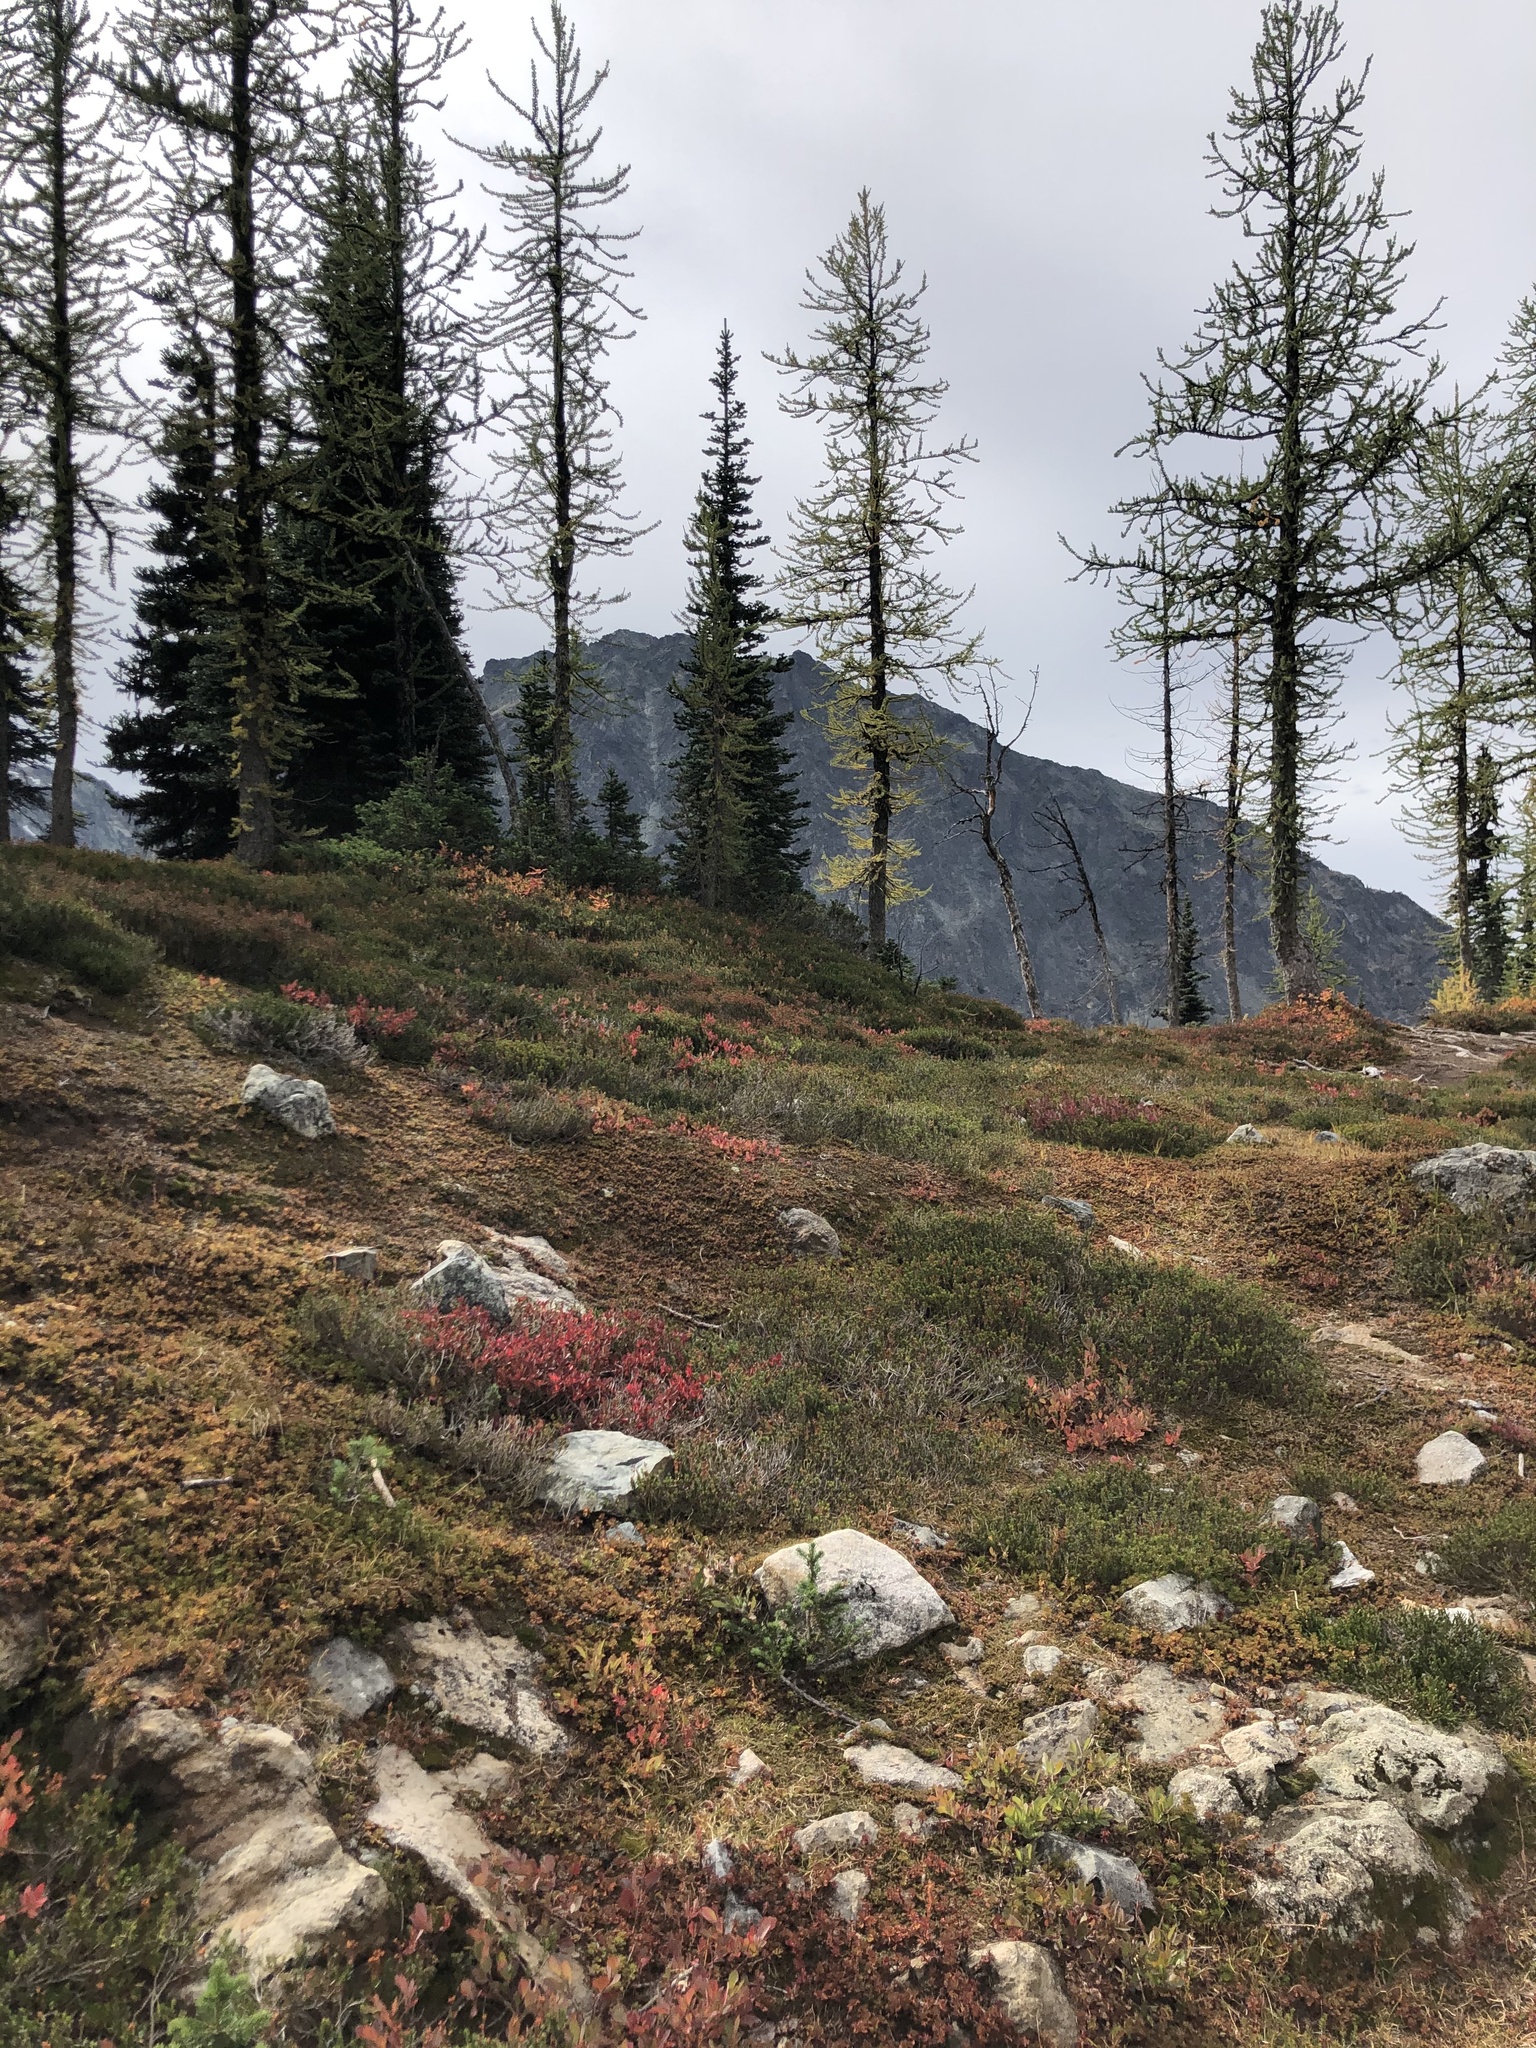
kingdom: Plantae
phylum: Tracheophyta
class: Pinopsida
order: Pinales
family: Pinaceae
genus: Abies
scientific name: Abies lasiocarpa
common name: Subalpine fir
